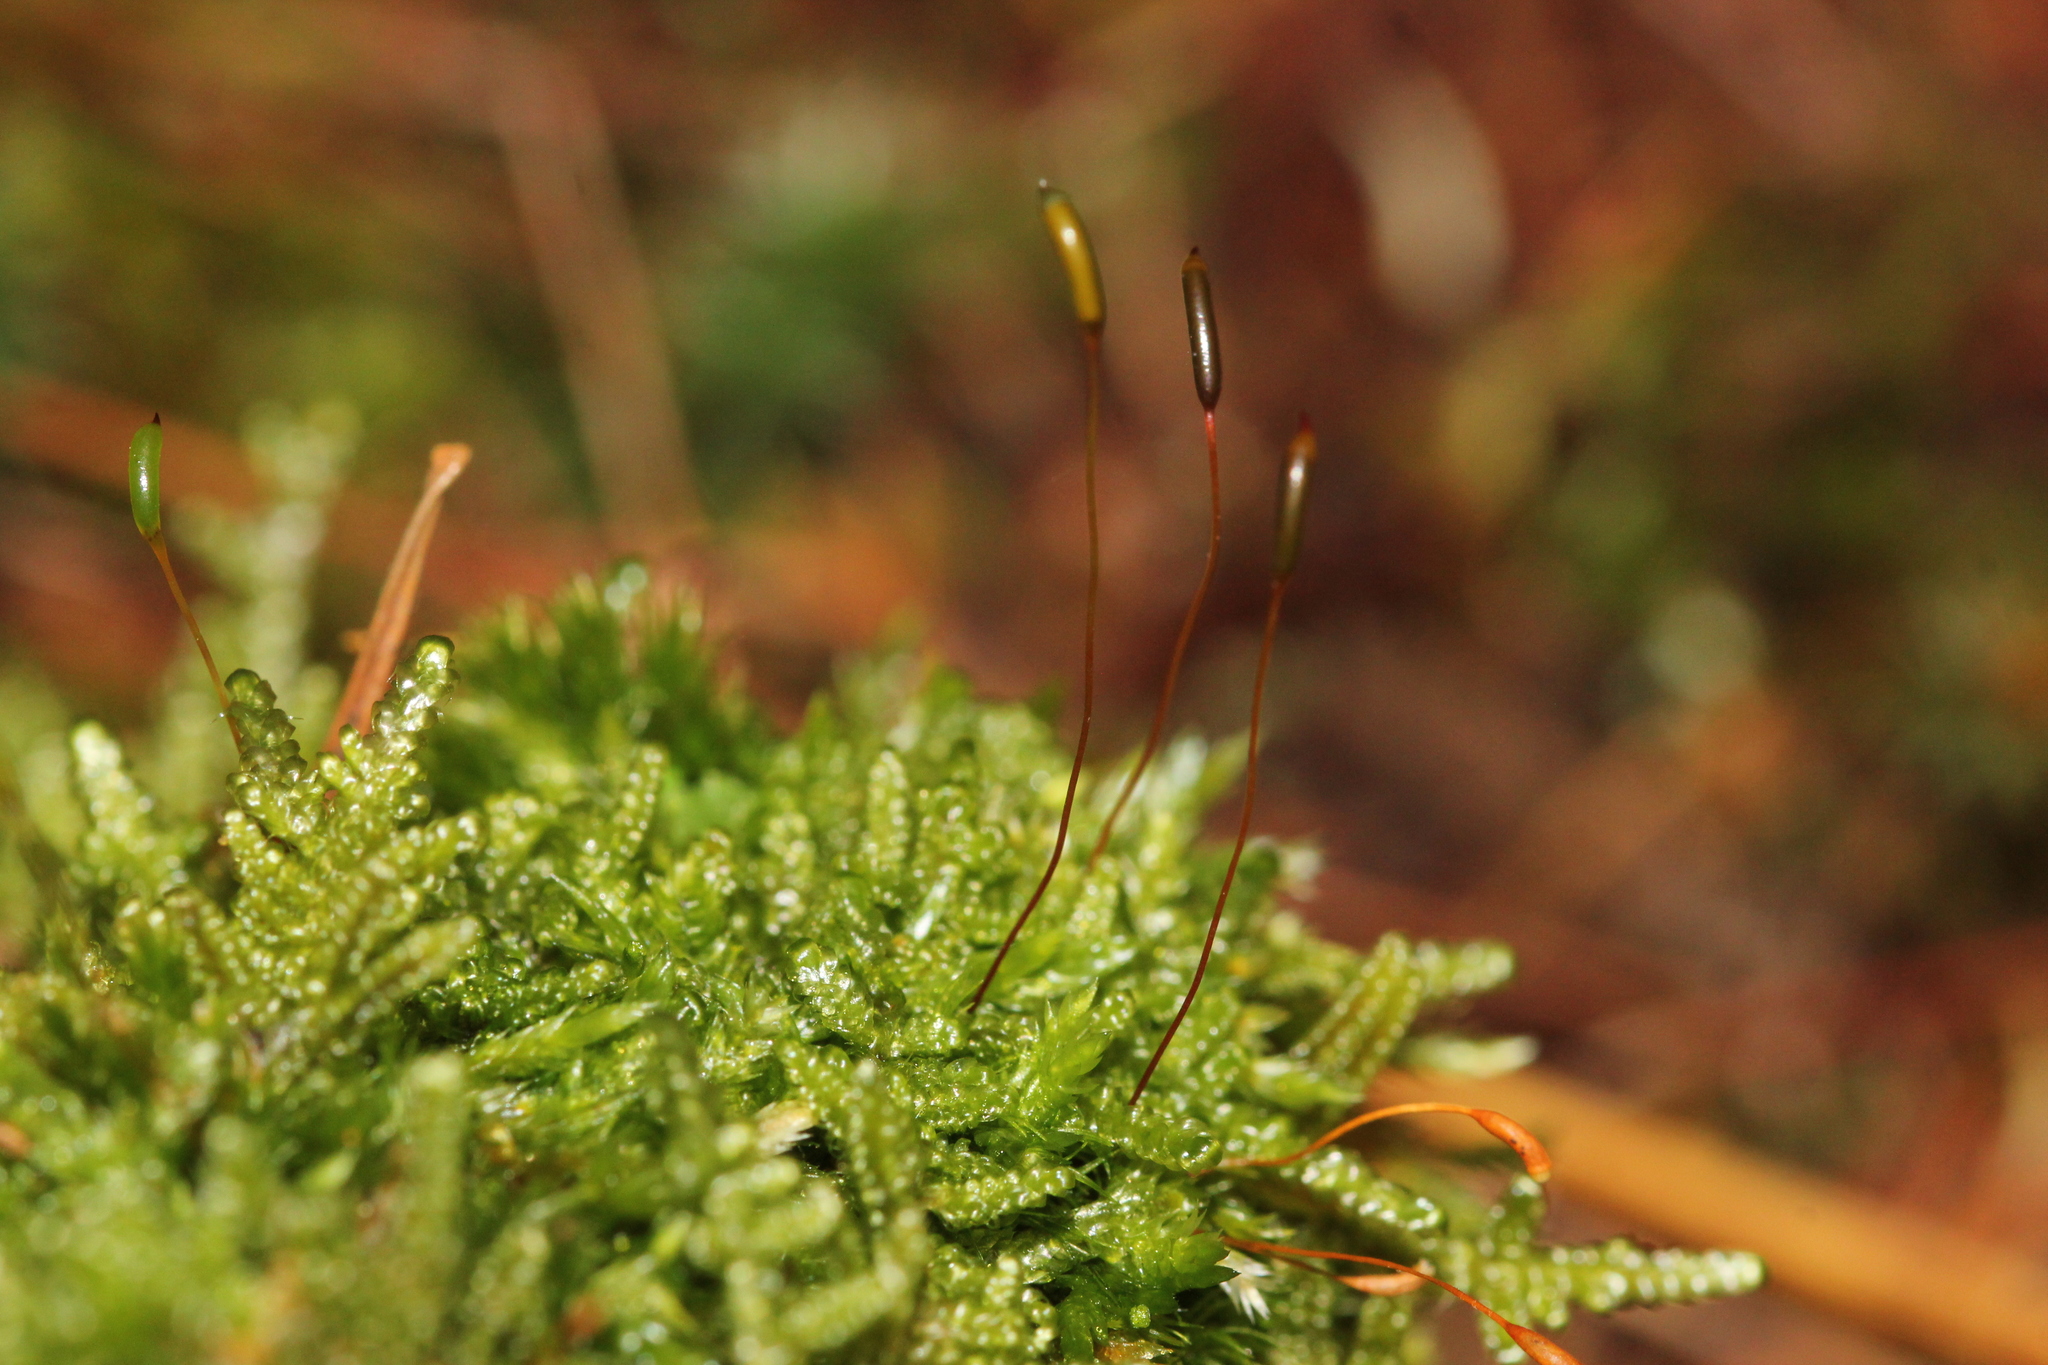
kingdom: Plantae
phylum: Bryophyta
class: Bryopsida
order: Hypnales
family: Callicladiaceae
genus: Callicladium
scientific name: Callicladium imponens
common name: Brocade moss
